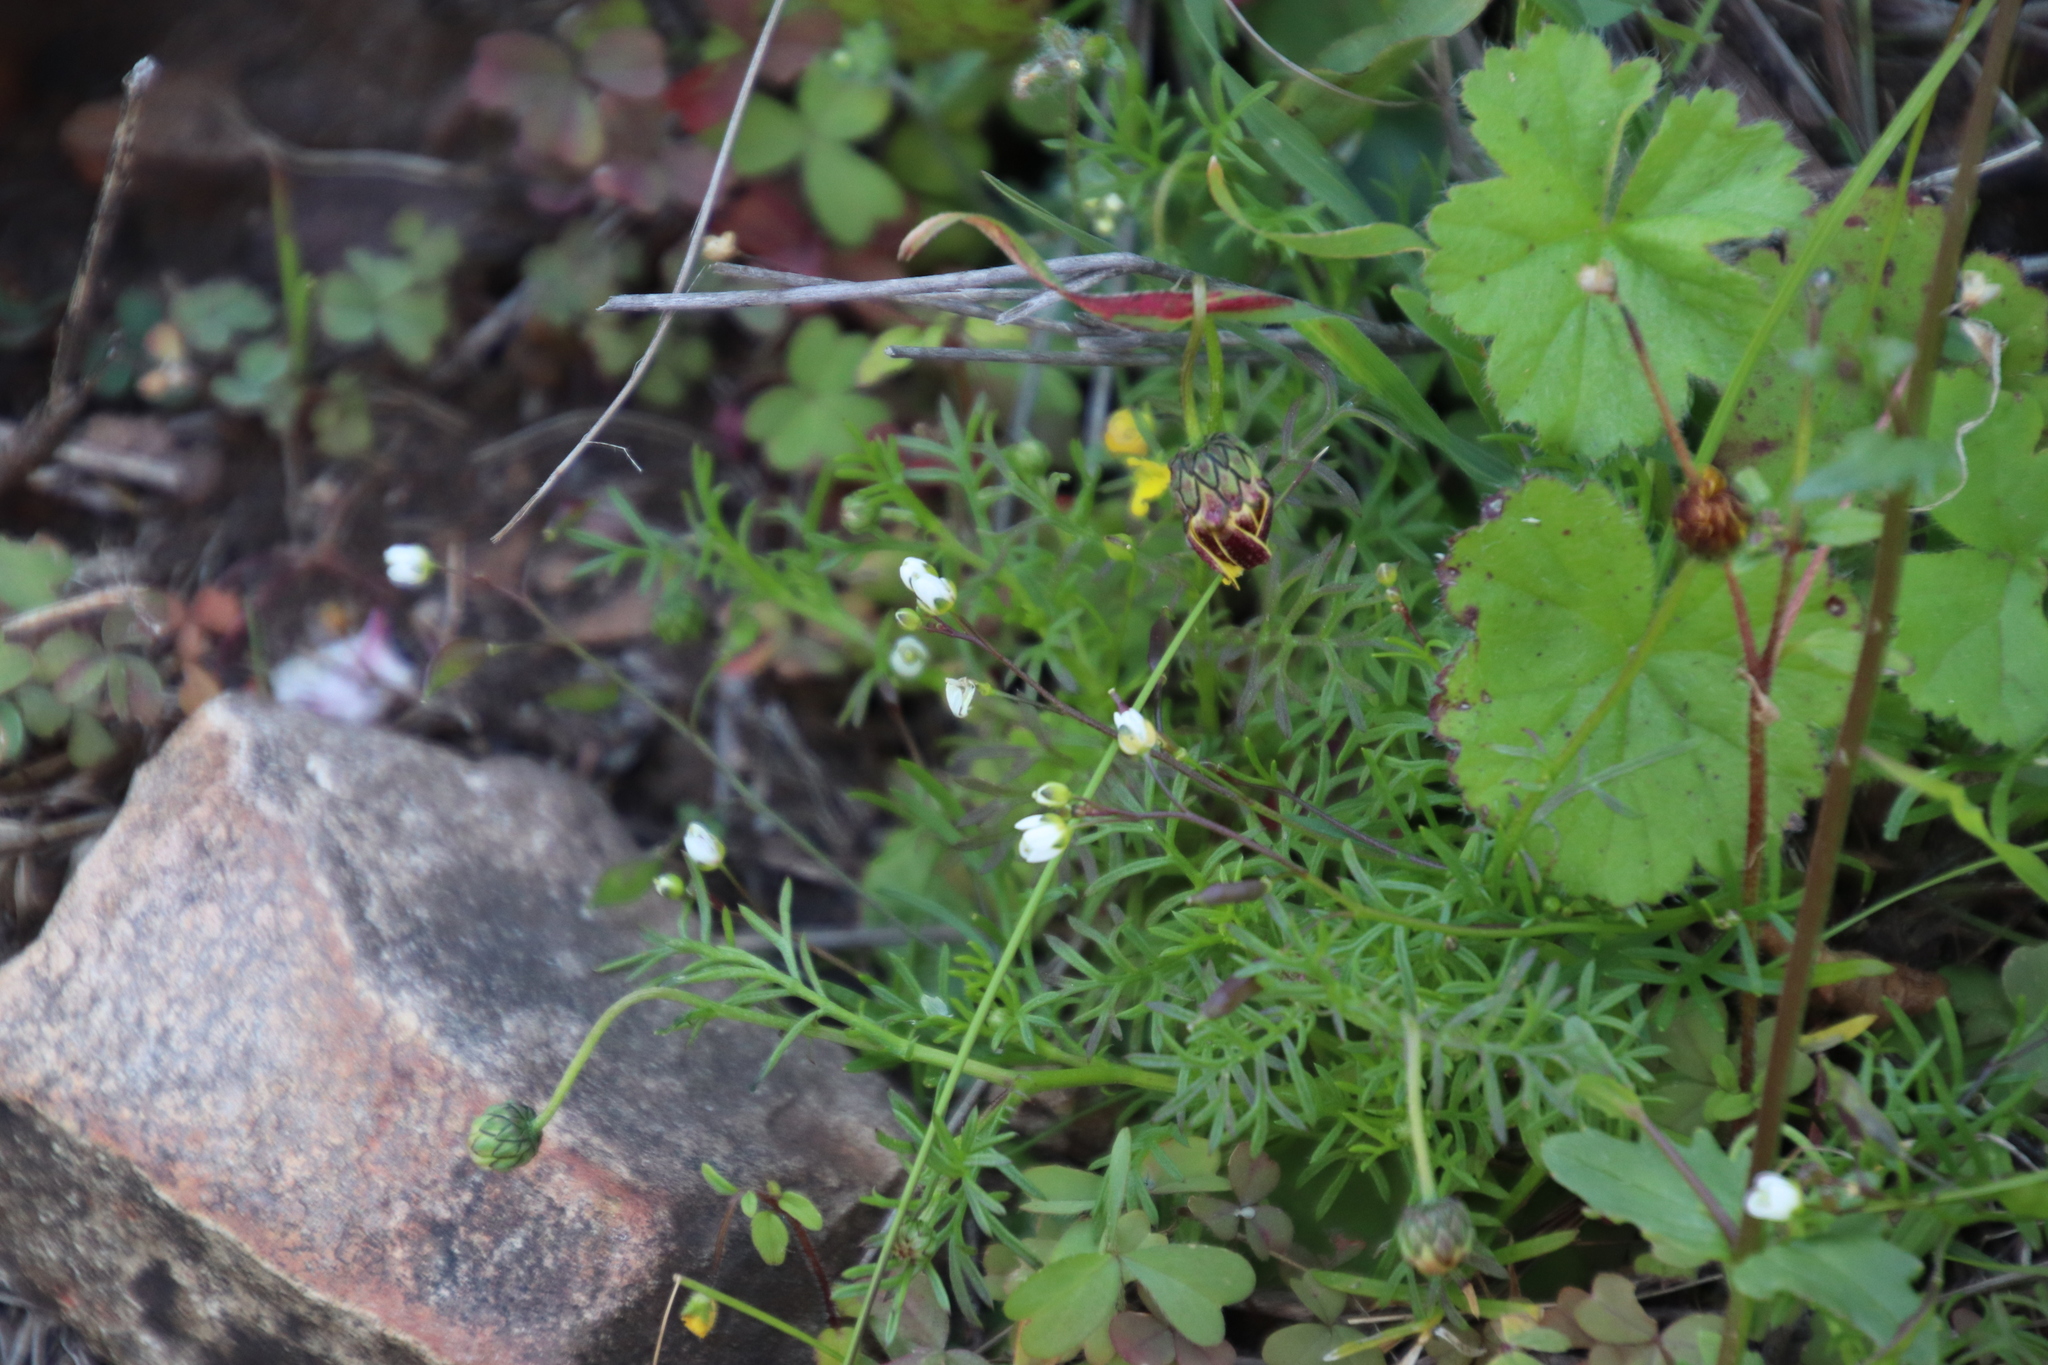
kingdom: Plantae
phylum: Tracheophyta
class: Magnoliopsida
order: Brassicales
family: Brassicaceae
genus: Heliophila
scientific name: Heliophila diffusa
